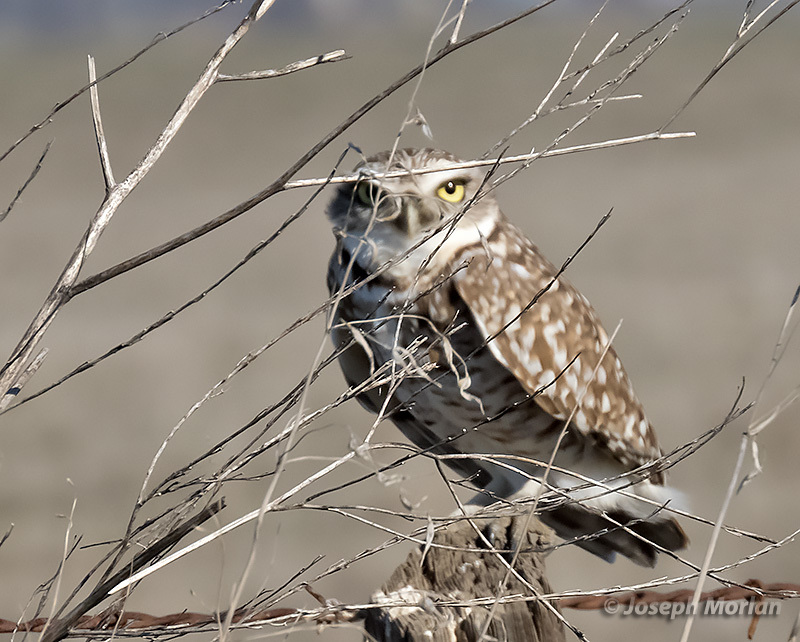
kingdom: Animalia
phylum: Chordata
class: Aves
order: Strigiformes
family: Strigidae
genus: Athene
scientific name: Athene cunicularia
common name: Burrowing owl
